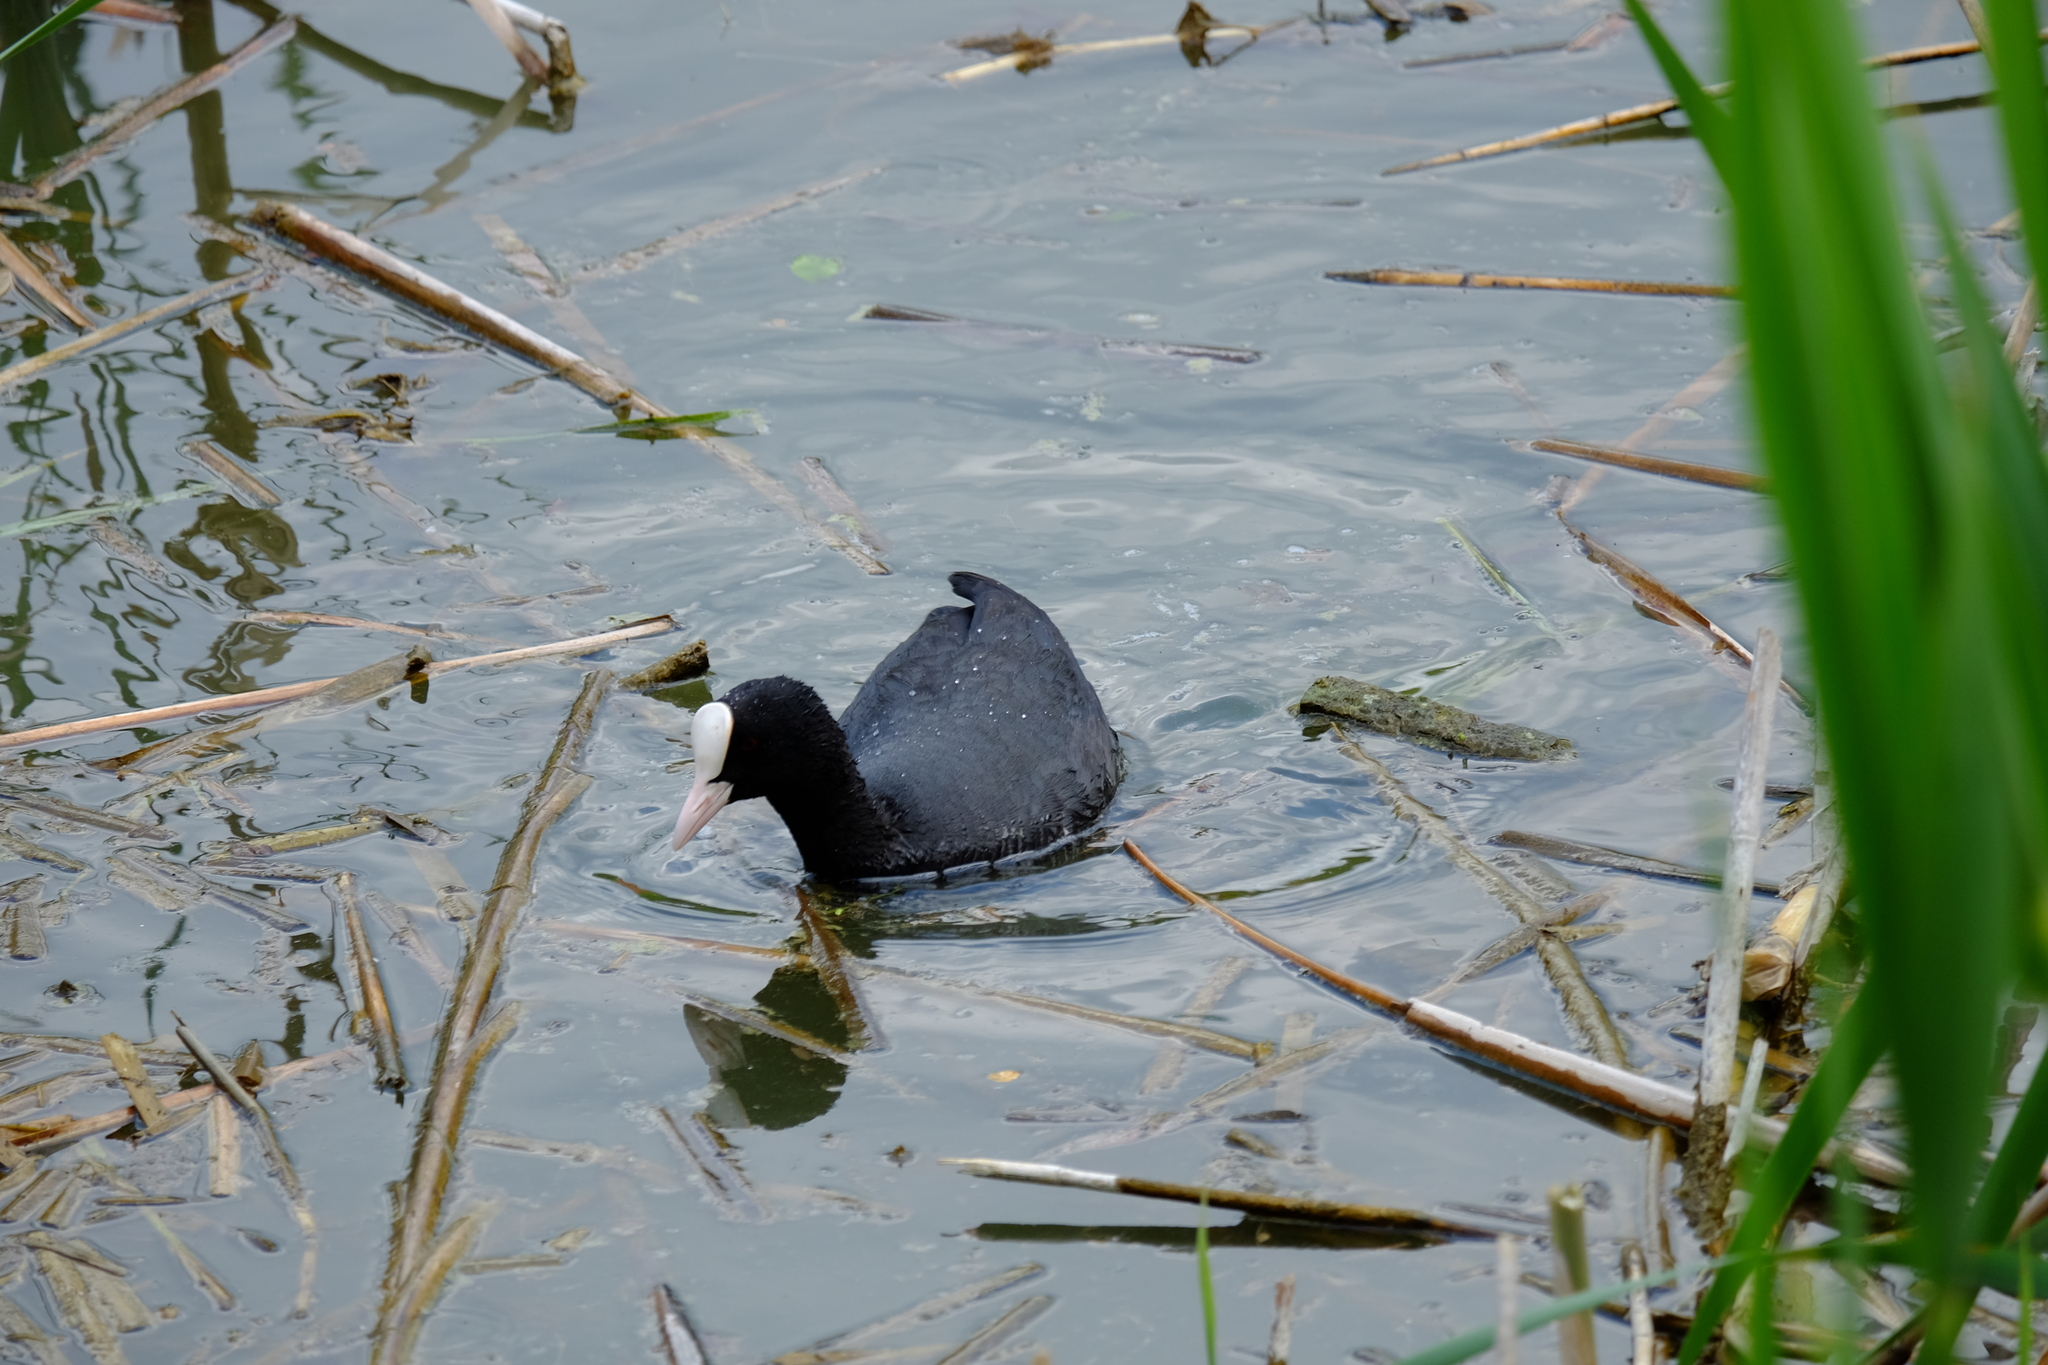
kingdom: Animalia
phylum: Chordata
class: Aves
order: Gruiformes
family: Rallidae
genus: Fulica
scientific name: Fulica atra
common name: Eurasian coot
